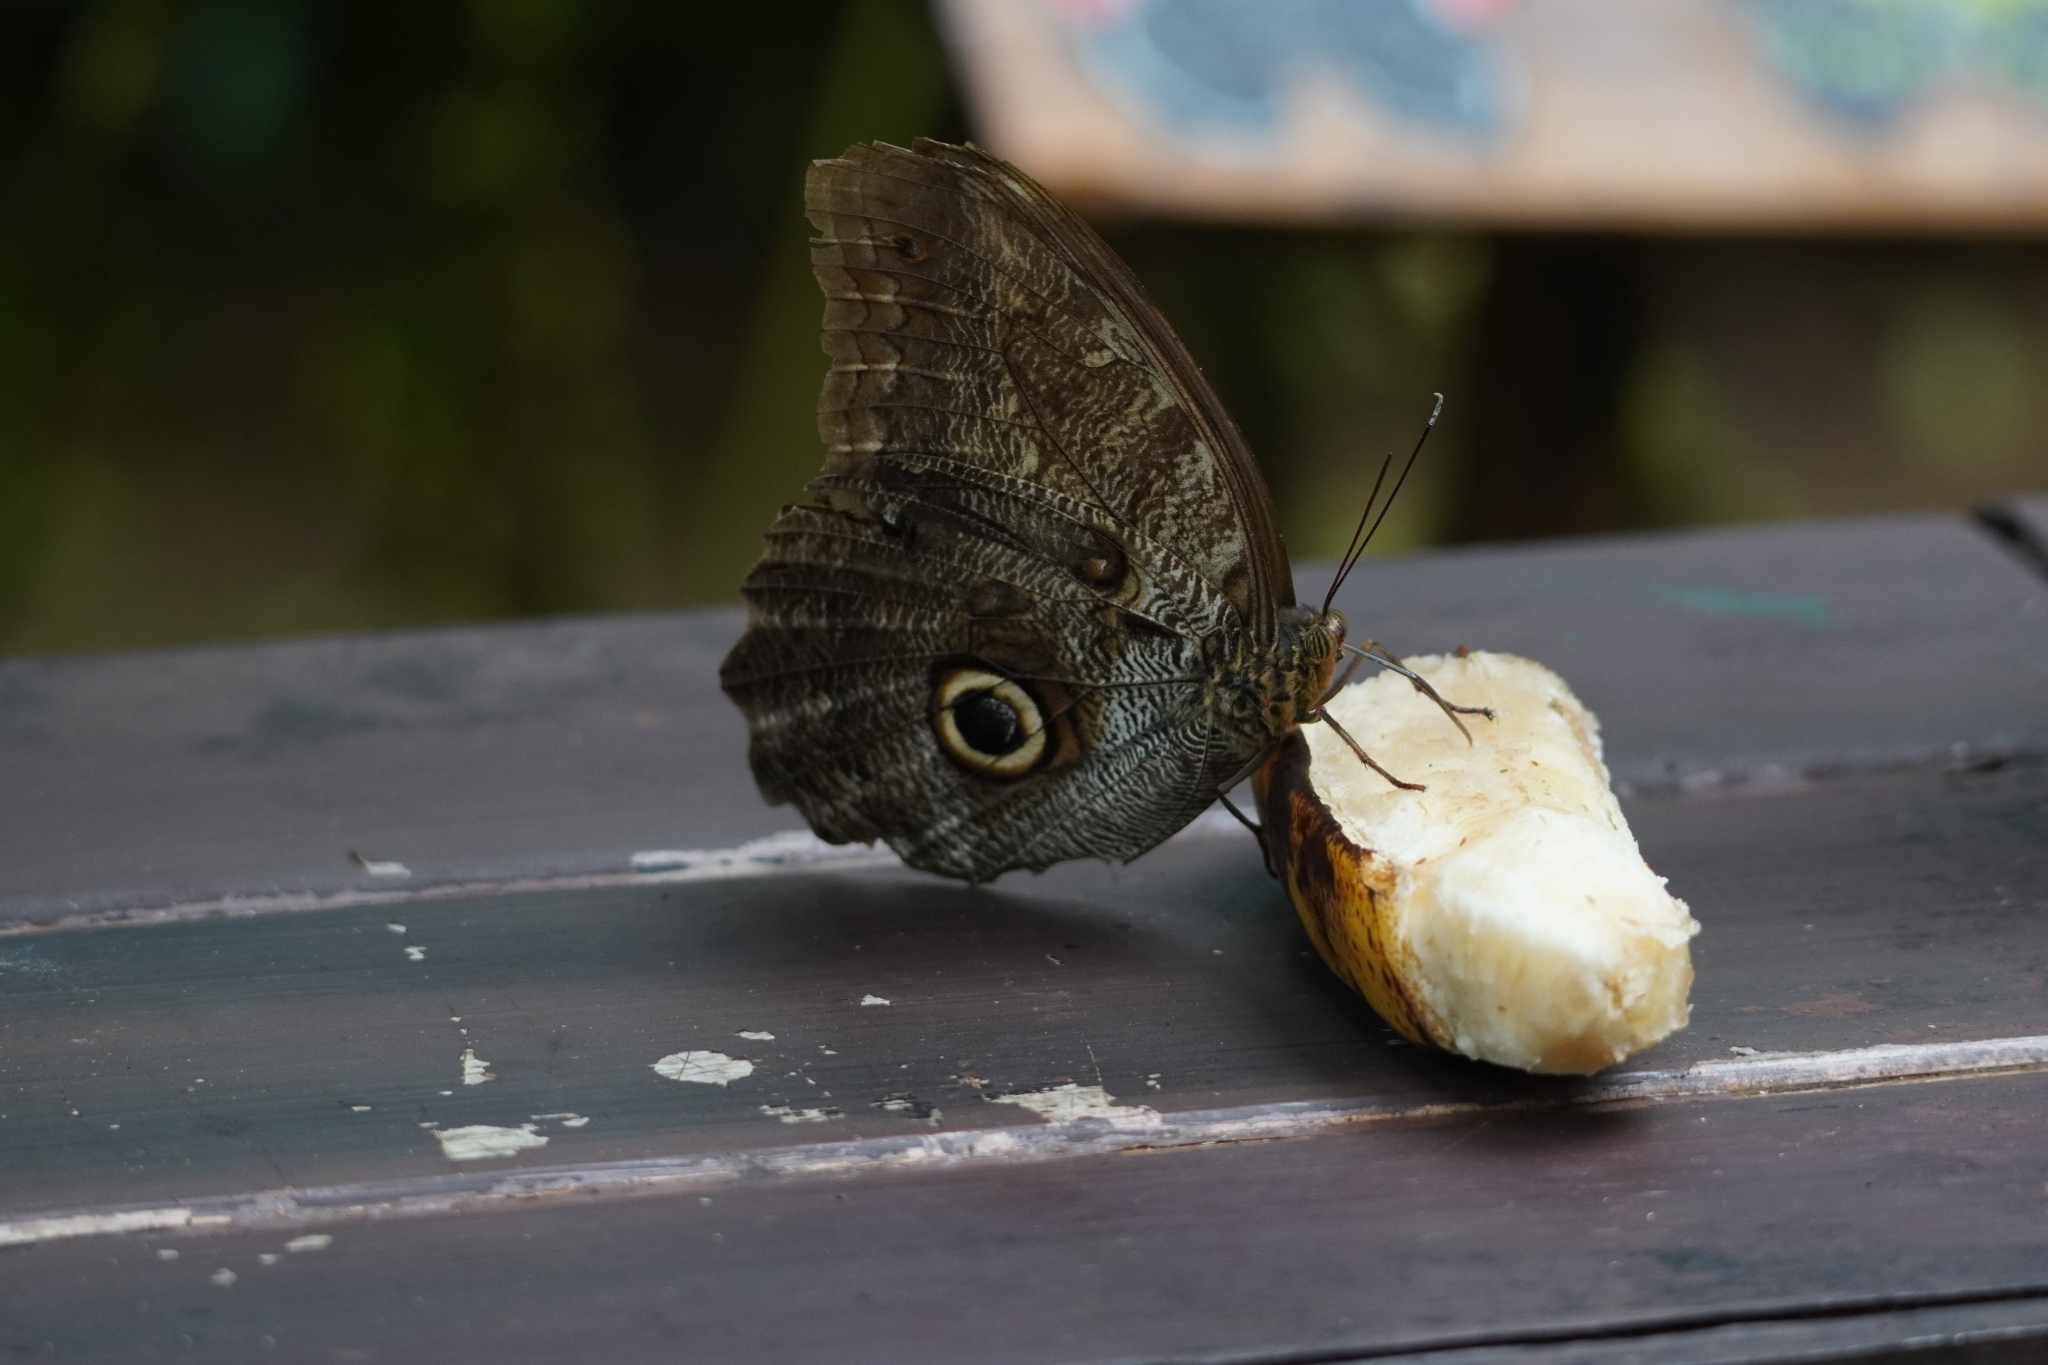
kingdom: Animalia
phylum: Arthropoda
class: Insecta
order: Lepidoptera
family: Nymphalidae
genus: Caligo
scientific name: Caligo brasiliensis
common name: Dark owl-butterfly
